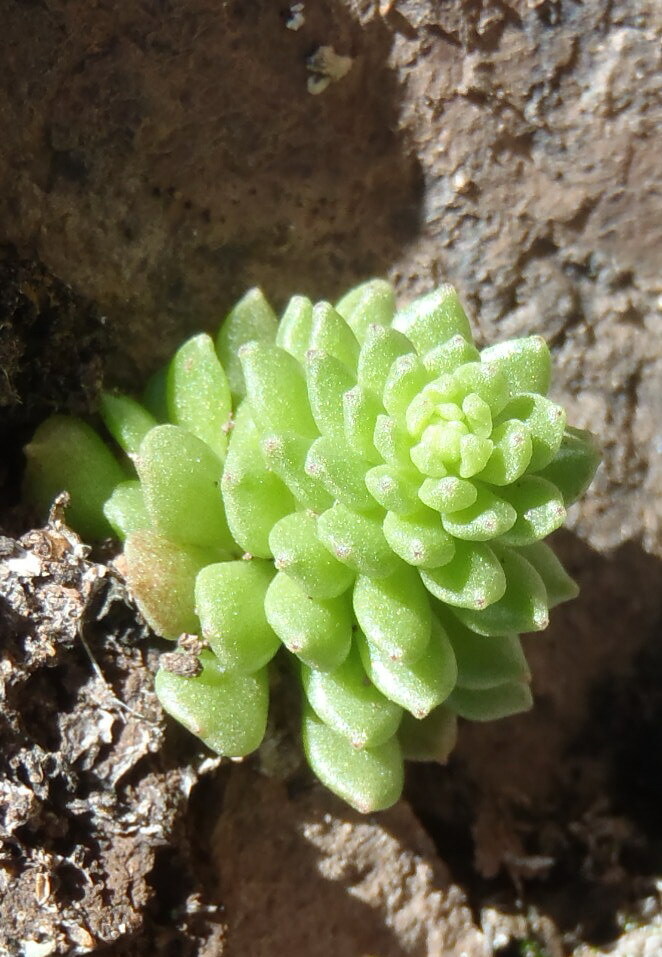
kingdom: Plantae
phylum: Tracheophyta
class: Magnoliopsida
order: Saxifragales
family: Crassulaceae
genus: Sedum
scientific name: Sedum wrightii
